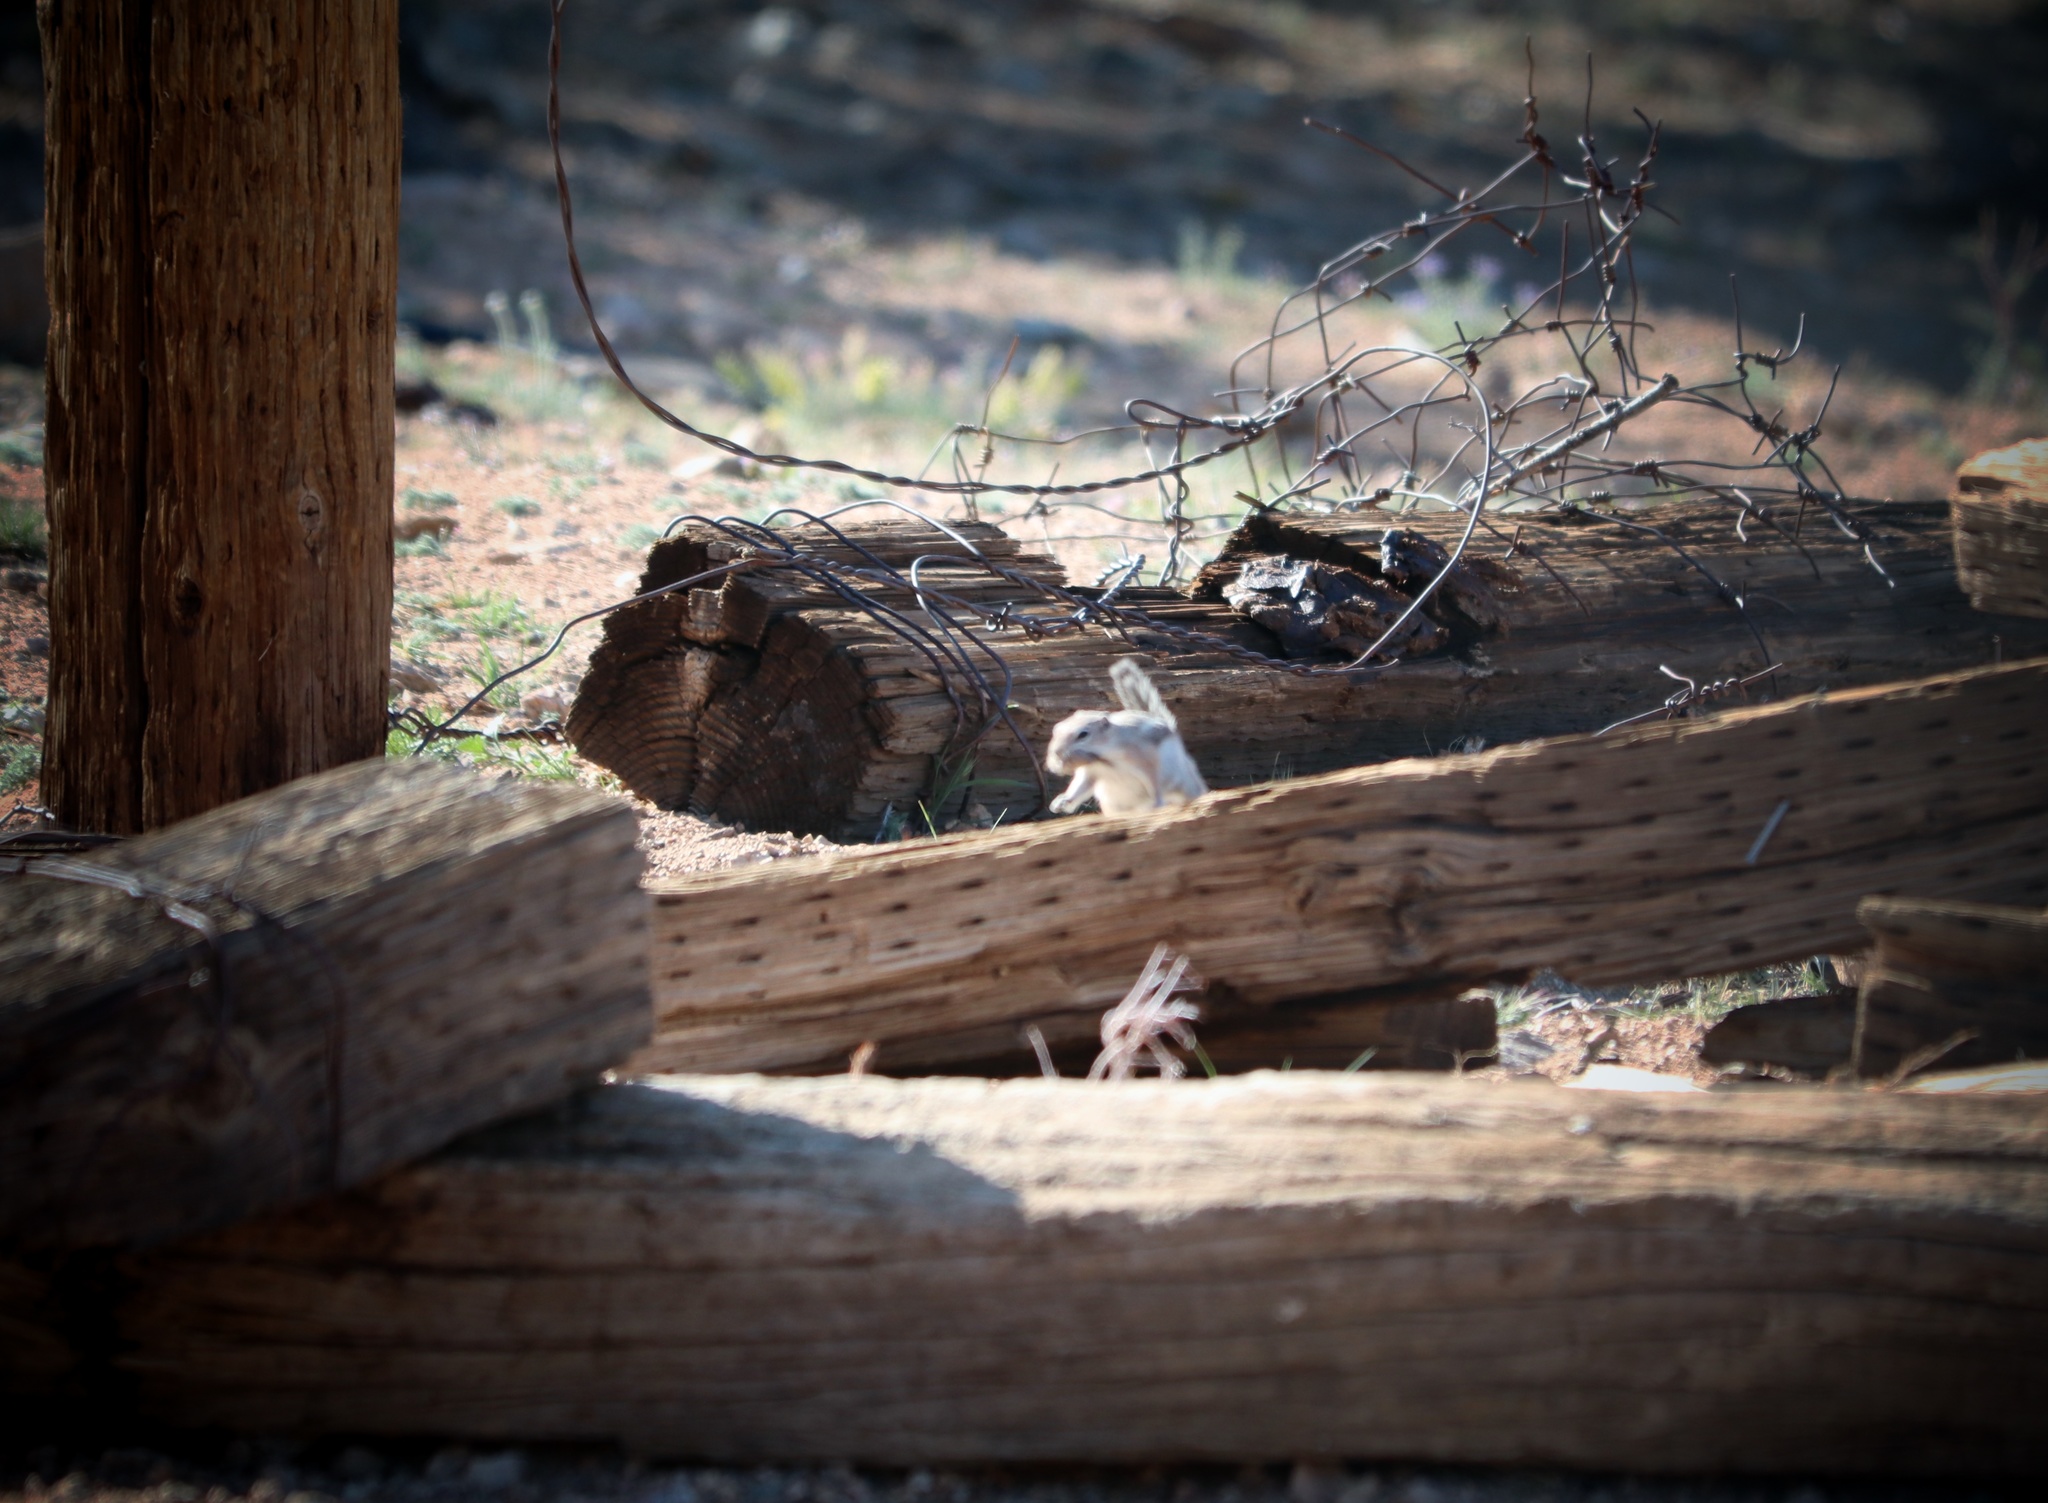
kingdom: Animalia
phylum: Chordata
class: Mammalia
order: Rodentia
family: Sciuridae
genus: Ammospermophilus
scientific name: Ammospermophilus leucurus
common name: White-tailed antelope squirrel
